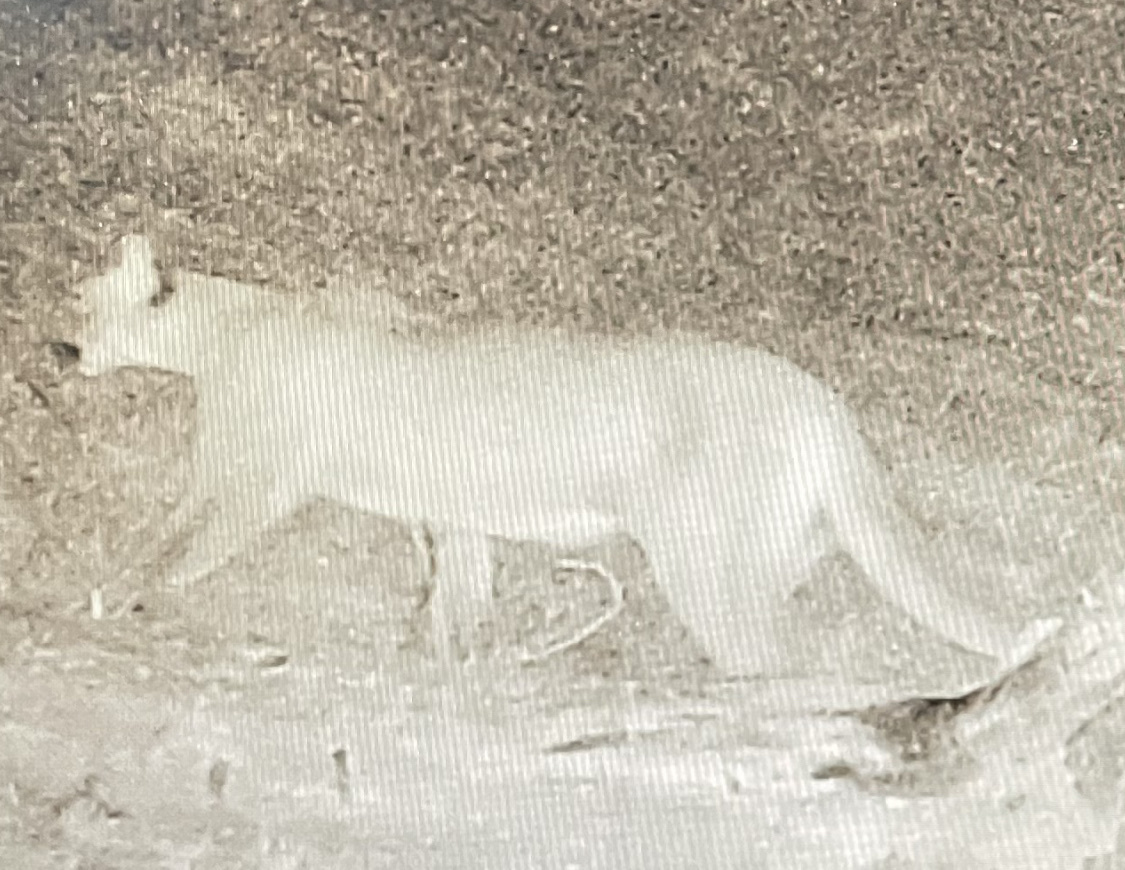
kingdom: Animalia
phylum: Chordata
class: Mammalia
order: Carnivora
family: Felidae
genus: Puma
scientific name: Puma concolor
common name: Puma
